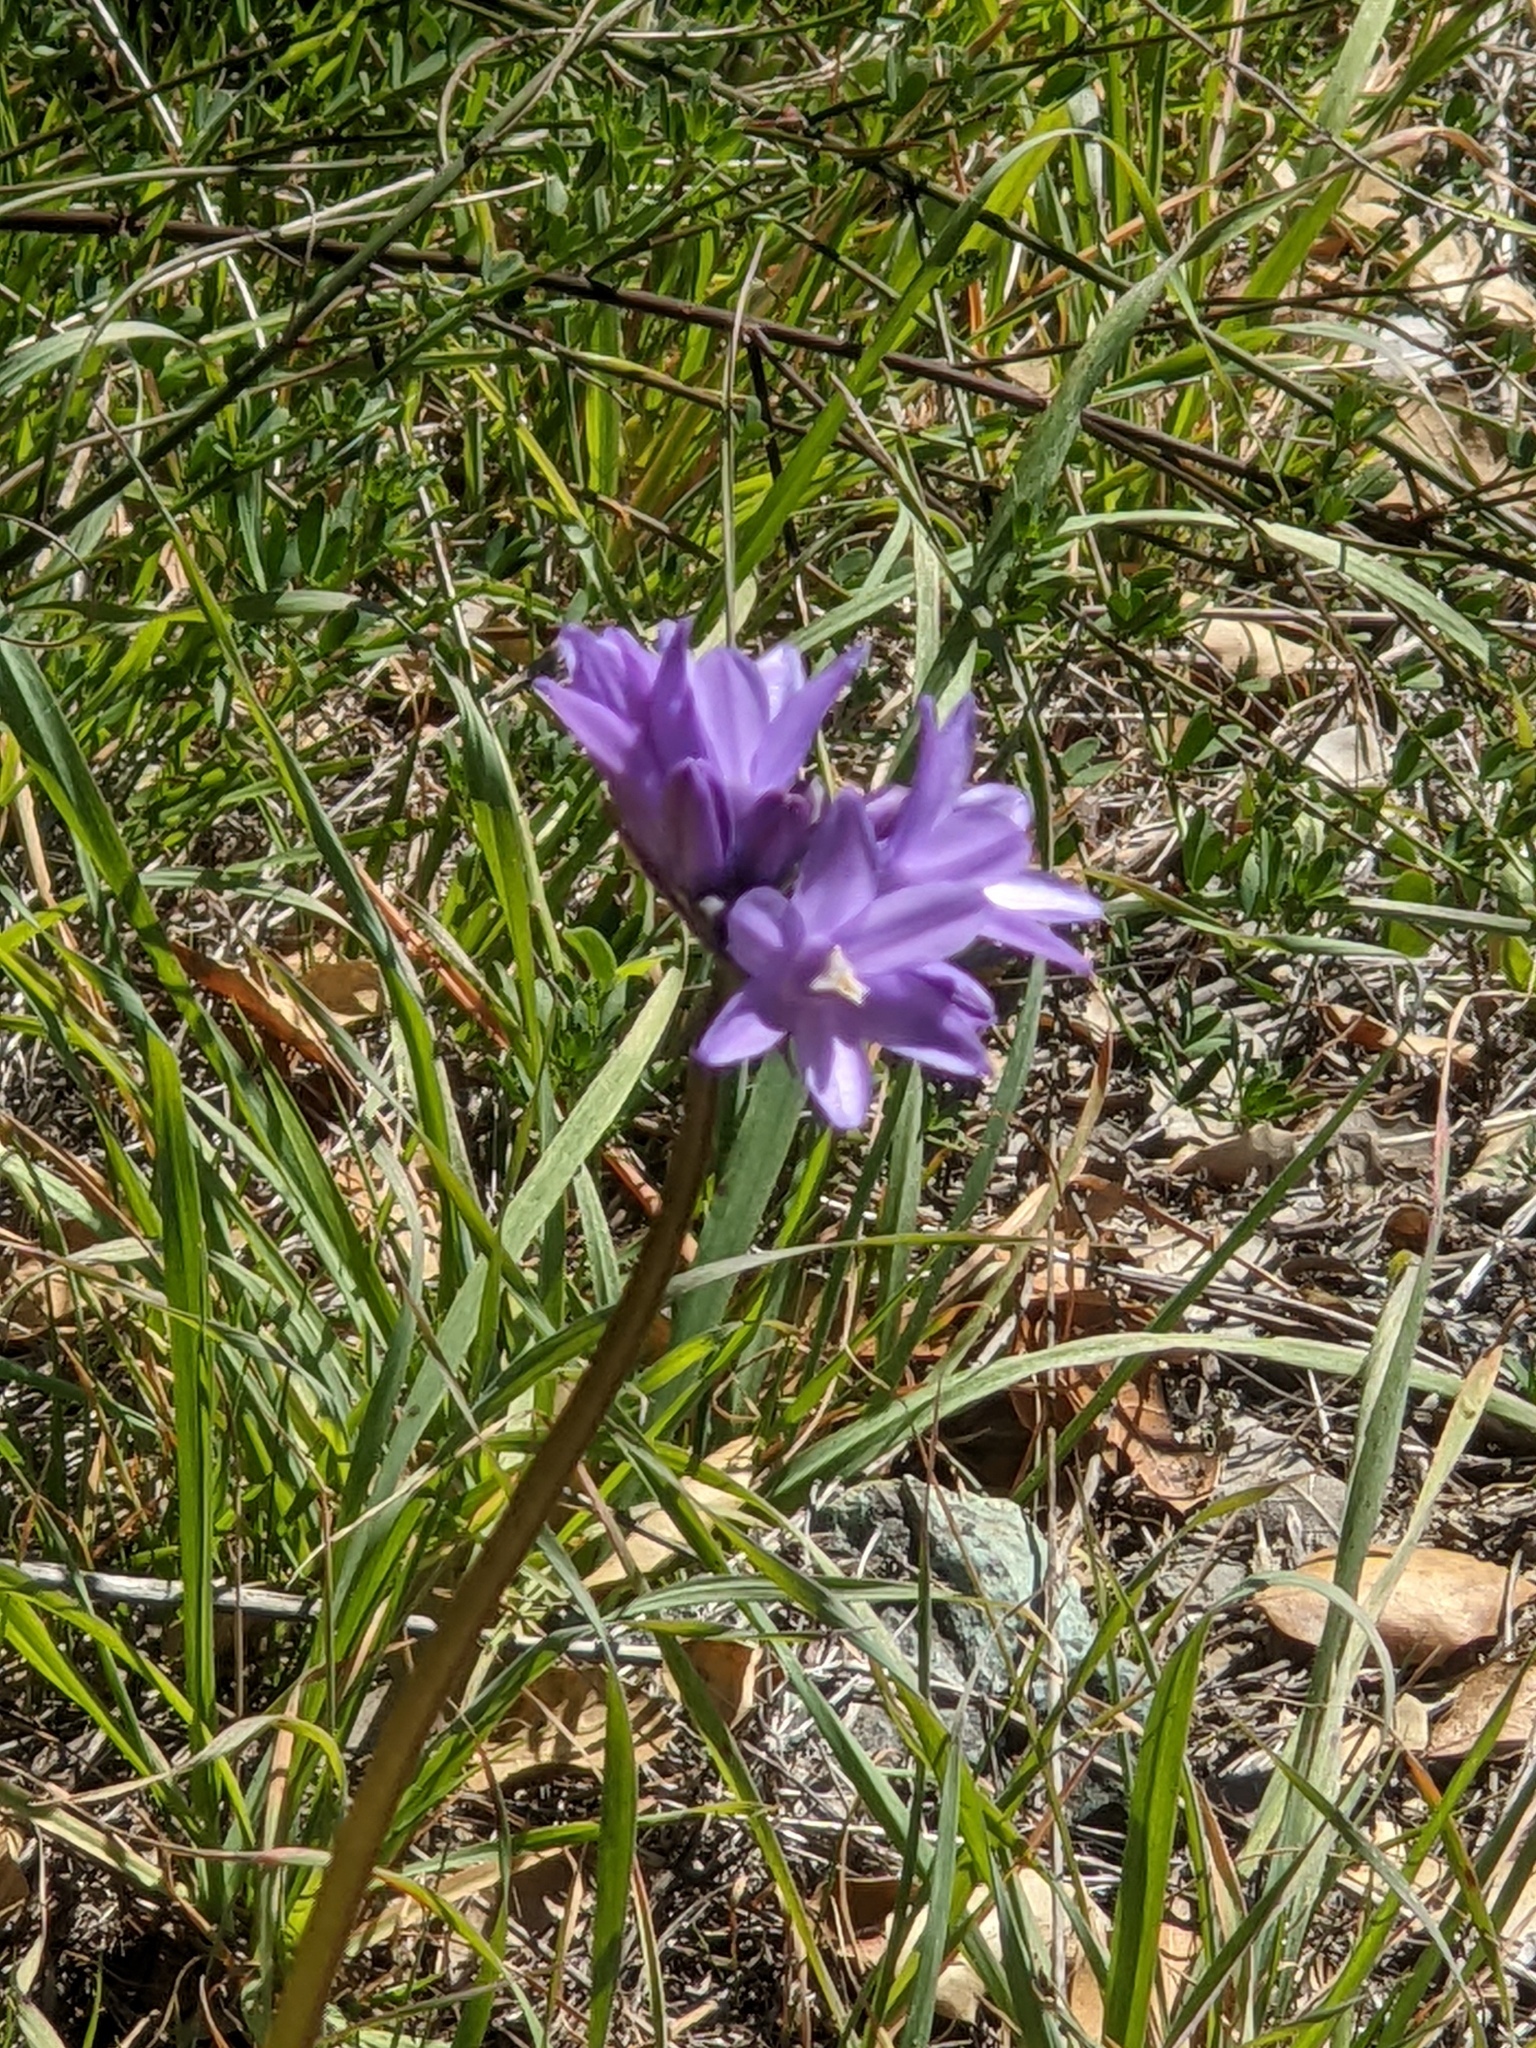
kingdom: Plantae
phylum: Tracheophyta
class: Liliopsida
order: Asparagales
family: Asparagaceae
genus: Dipterostemon
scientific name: Dipterostemon capitatus
